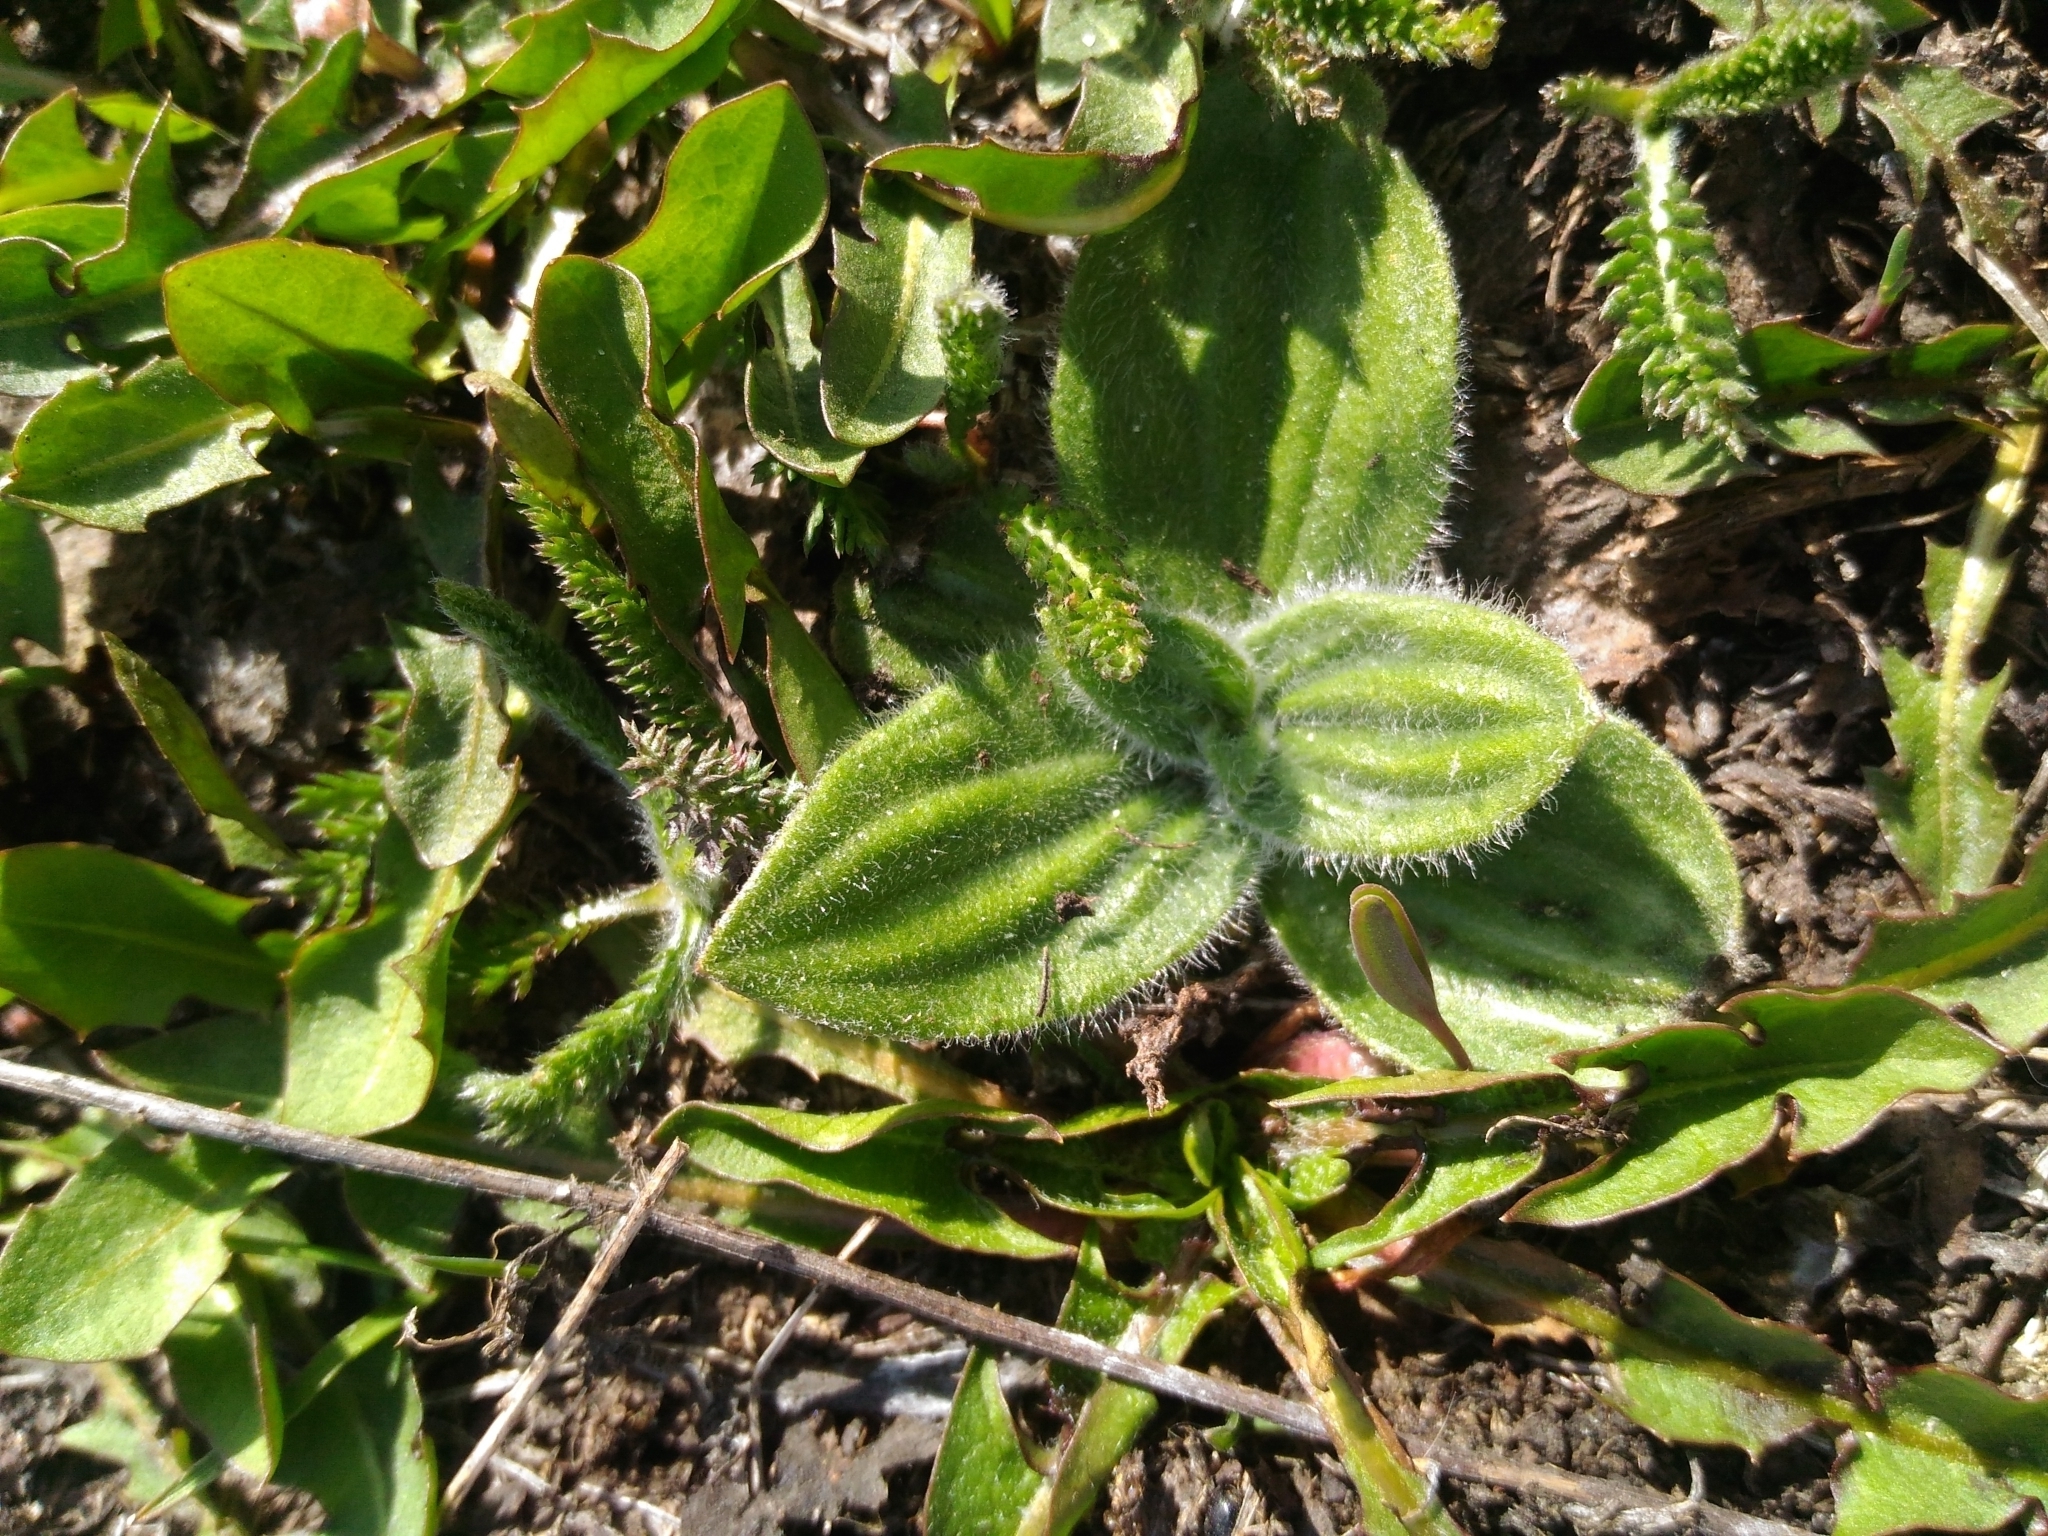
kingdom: Plantae
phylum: Tracheophyta
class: Magnoliopsida
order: Lamiales
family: Plantaginaceae
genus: Plantago
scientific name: Plantago media
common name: Hoary plantain
